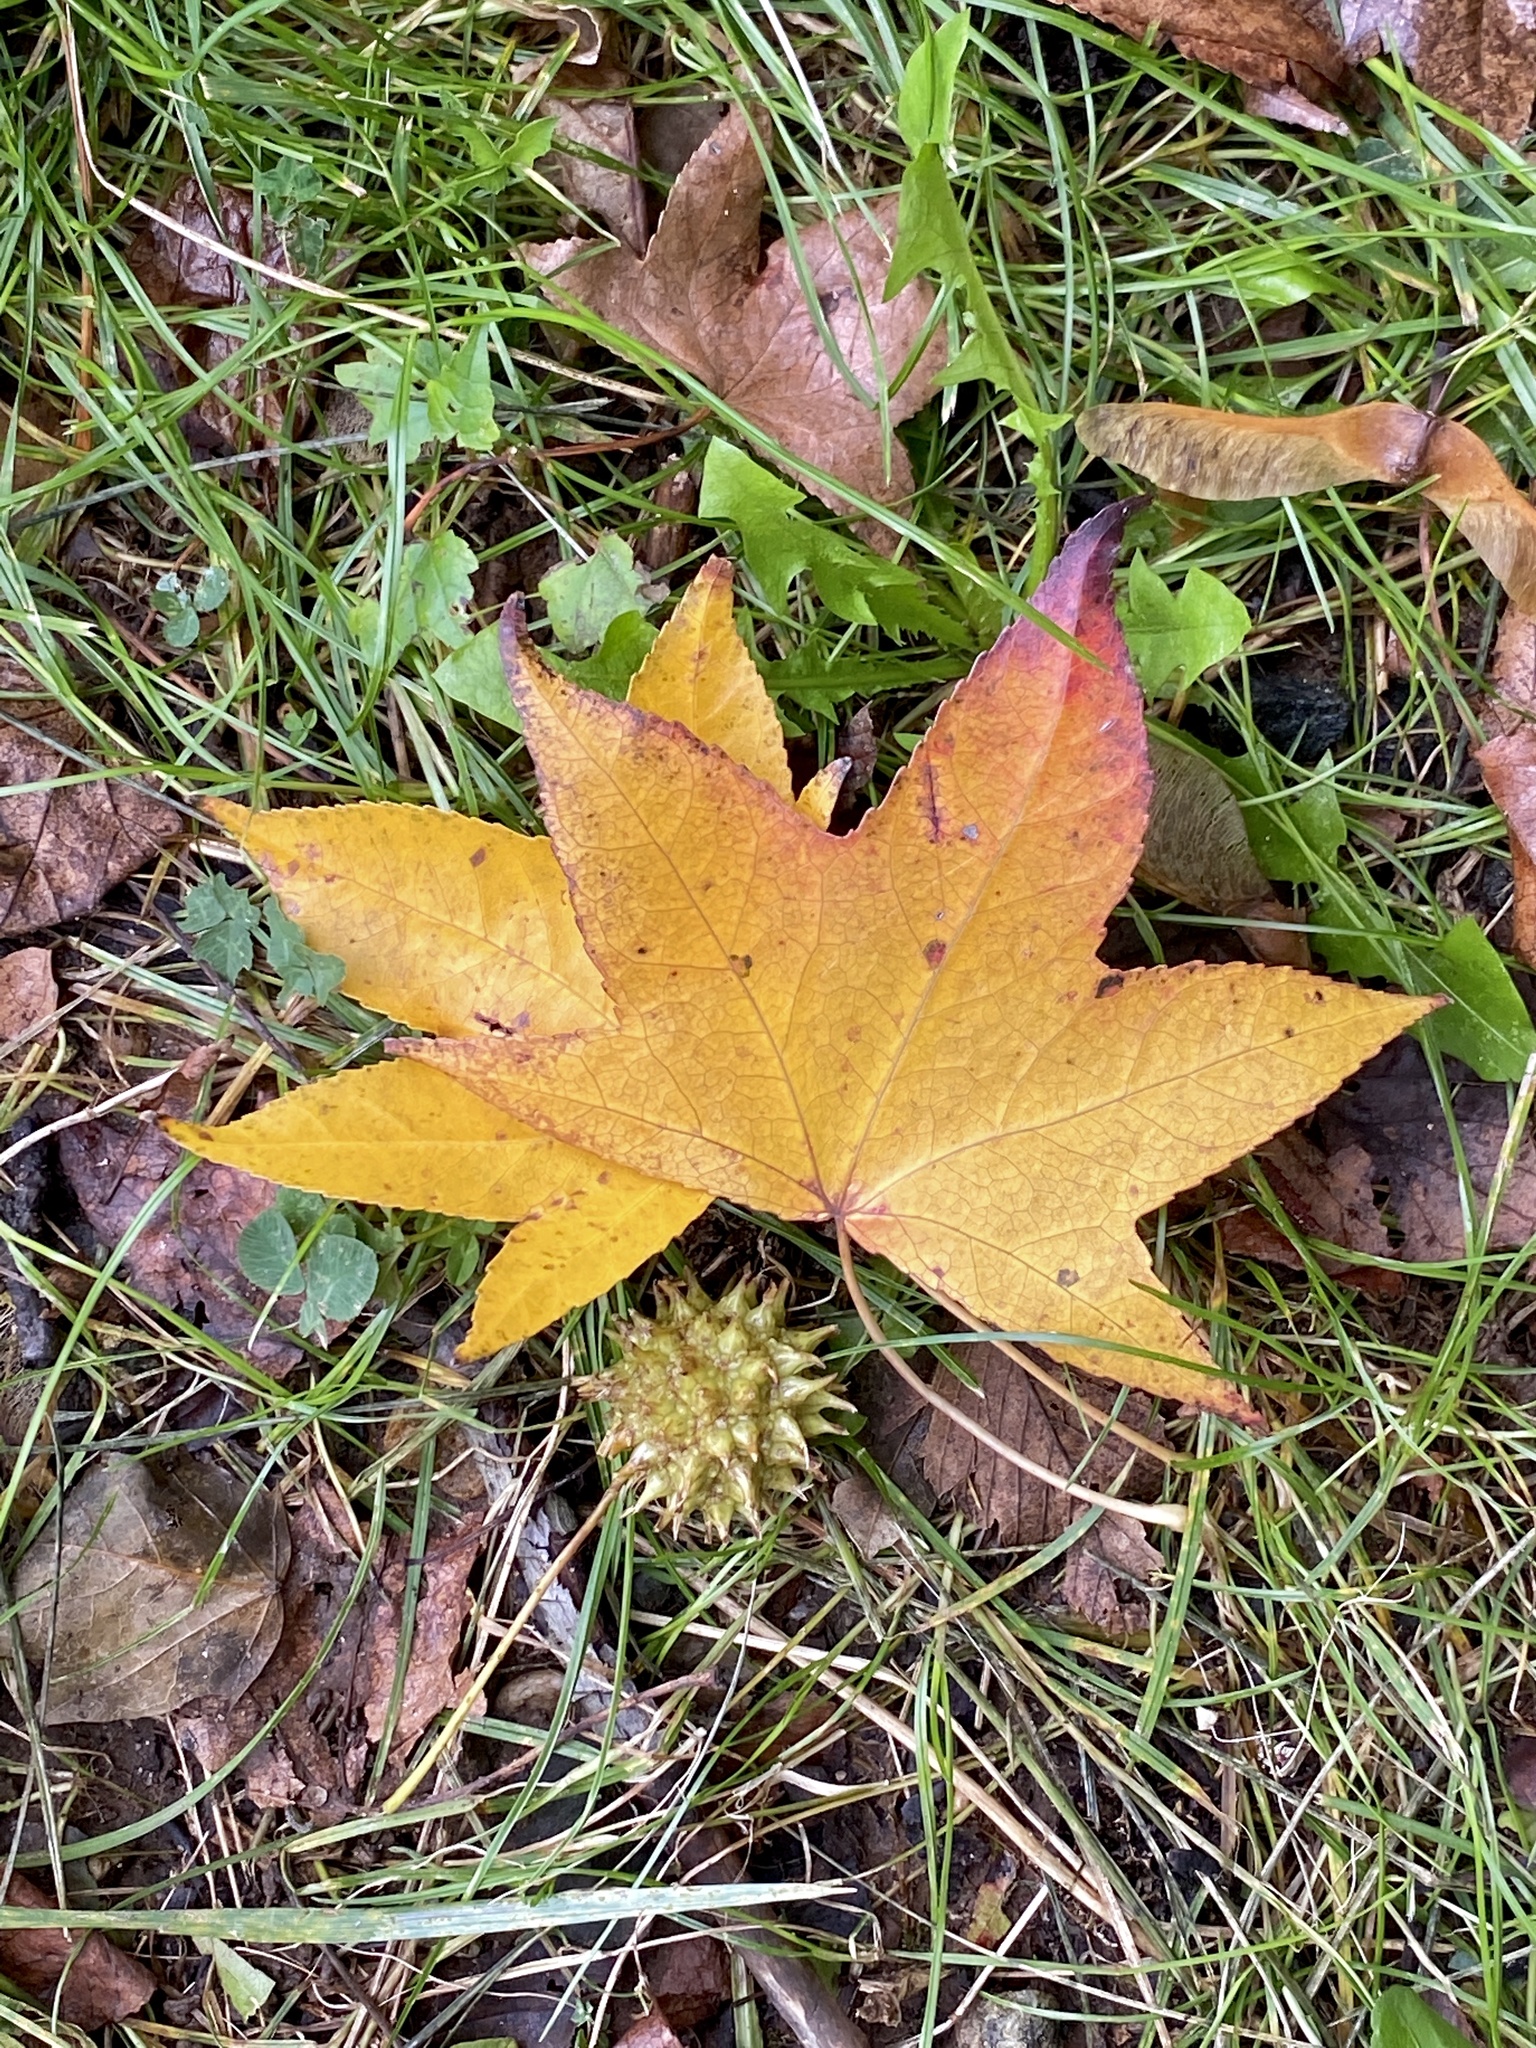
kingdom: Plantae
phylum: Tracheophyta
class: Magnoliopsida
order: Saxifragales
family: Altingiaceae
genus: Liquidambar
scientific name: Liquidambar styraciflua
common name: Sweet gum
